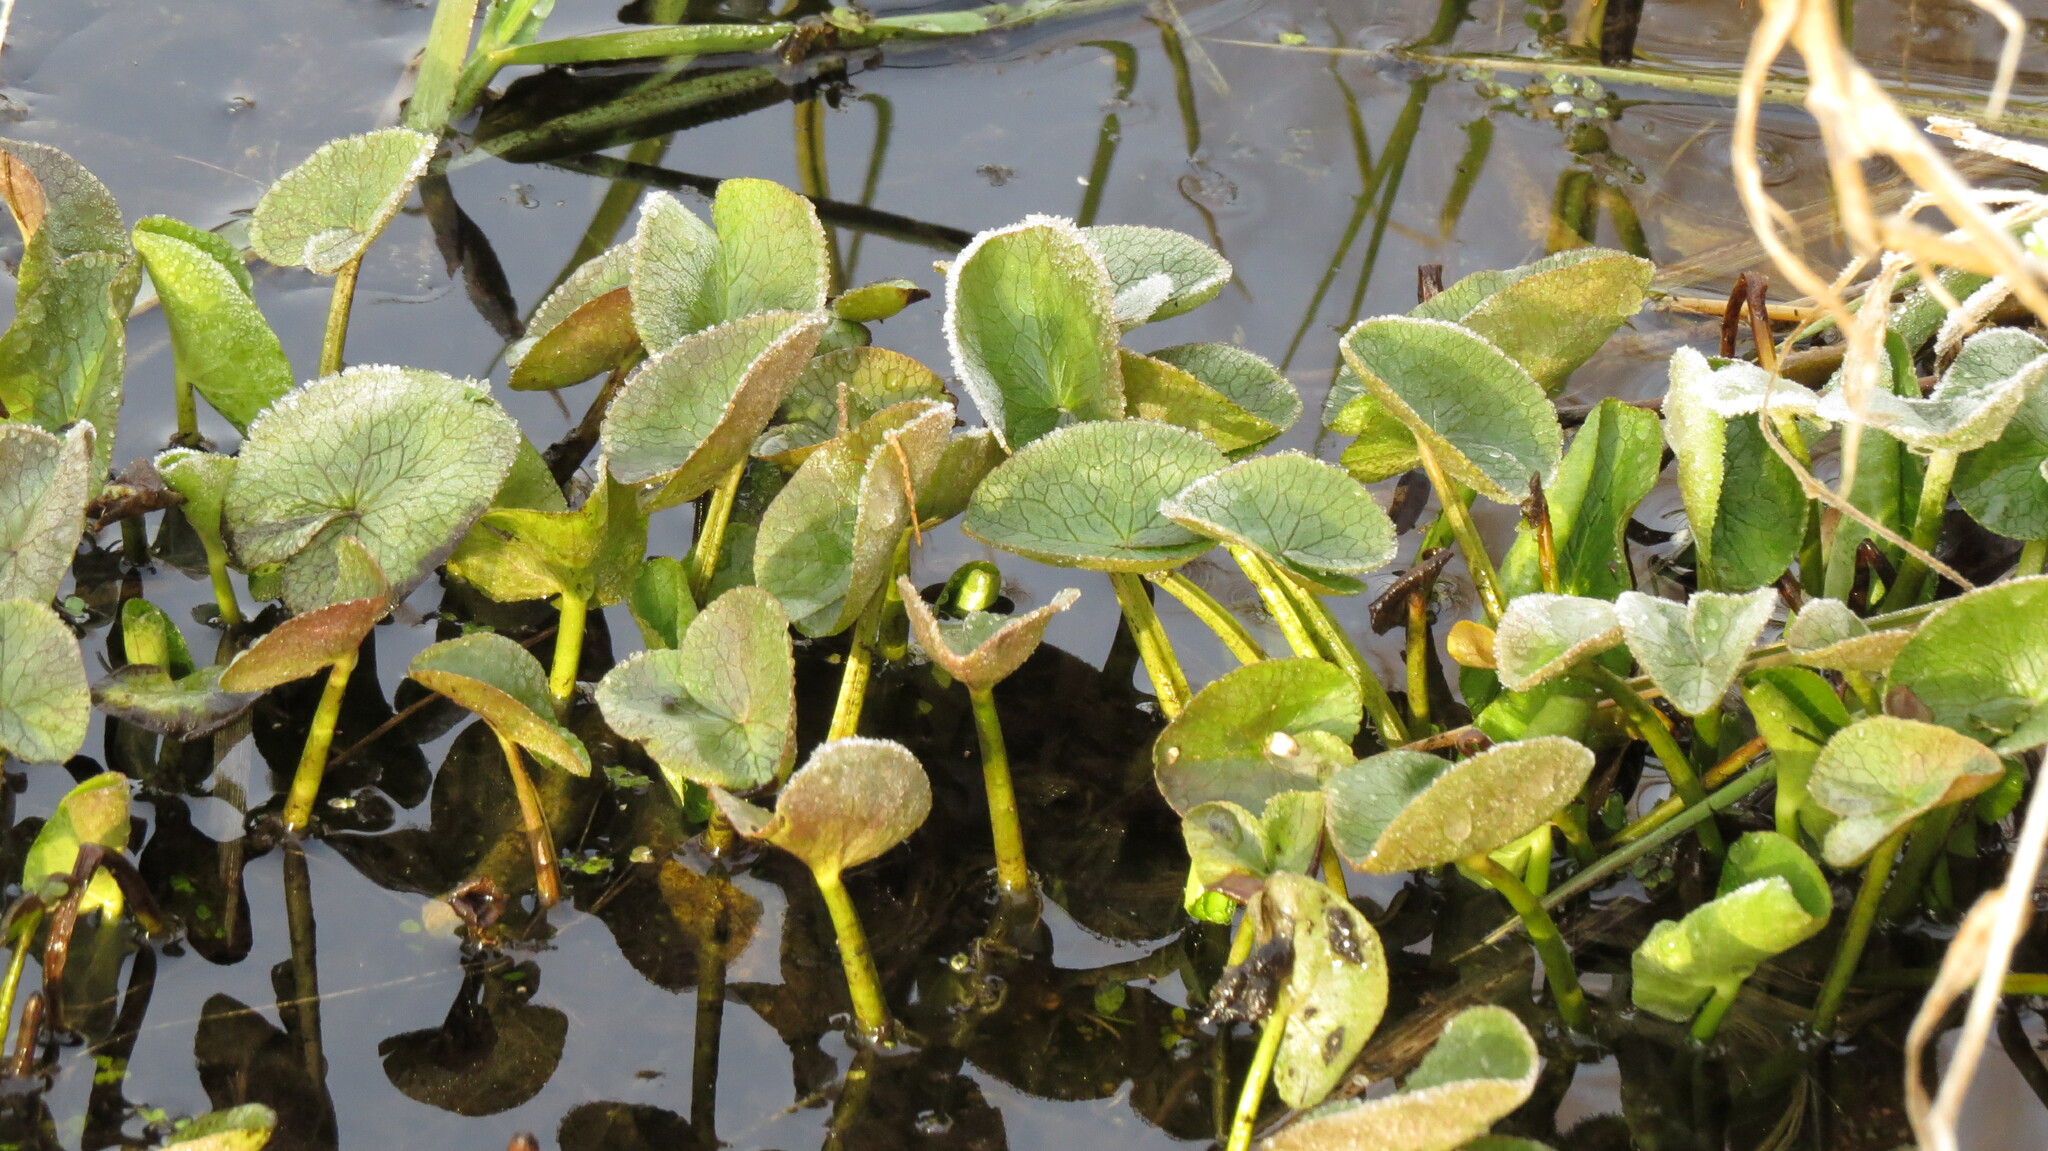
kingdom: Plantae
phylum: Tracheophyta
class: Magnoliopsida
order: Ranunculales
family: Ranunculaceae
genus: Caltha
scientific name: Caltha palustris
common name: Marsh marigold
